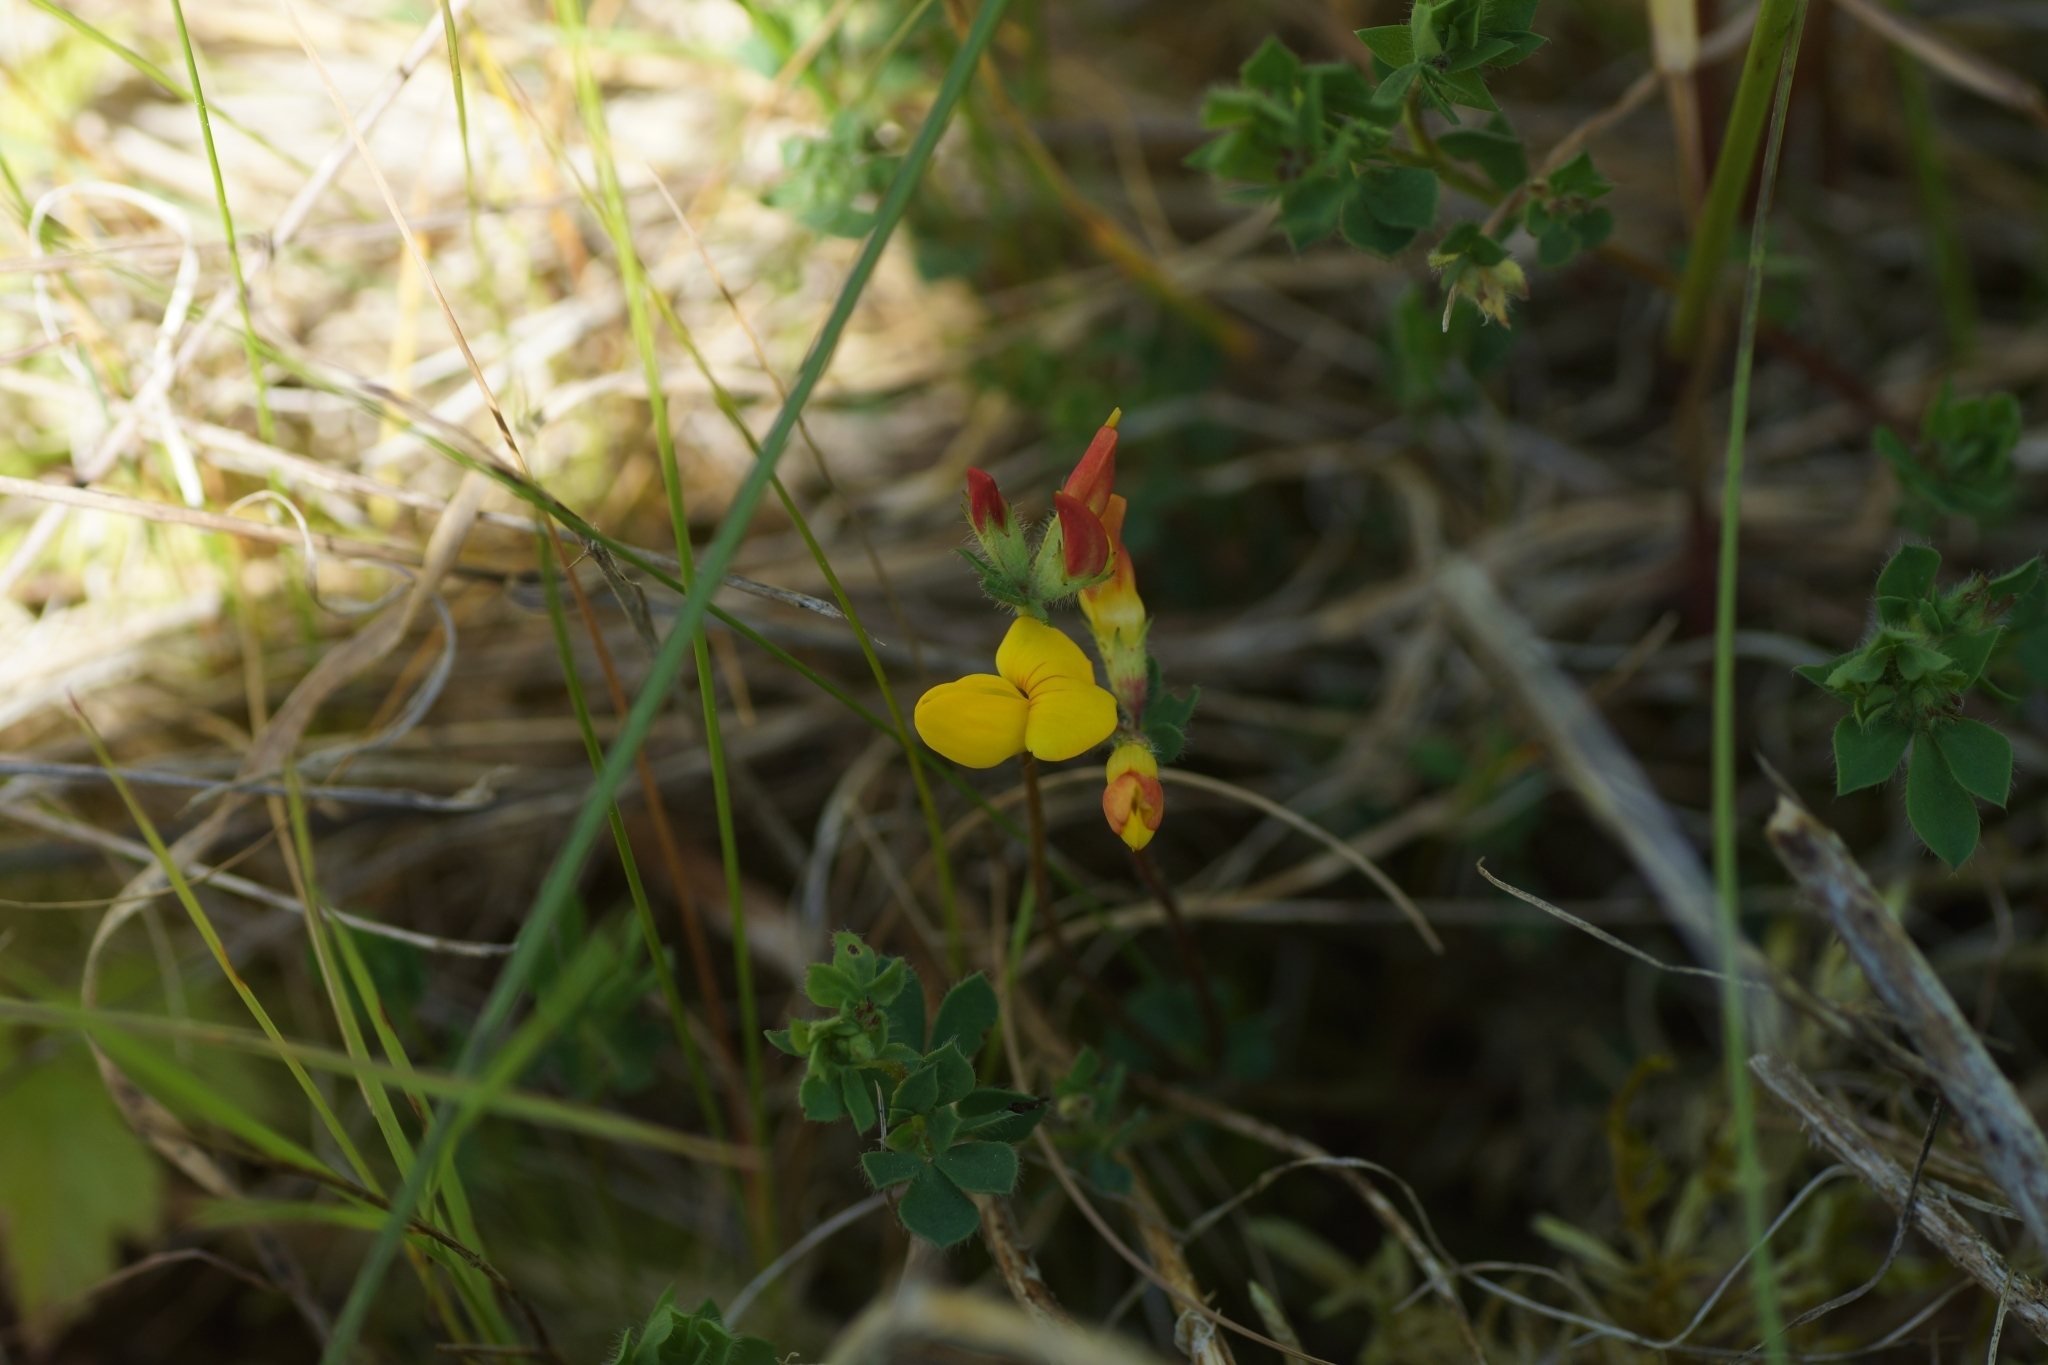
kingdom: Plantae
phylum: Tracheophyta
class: Magnoliopsida
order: Fabales
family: Fabaceae
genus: Lotus
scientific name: Lotus corniculatus
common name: Common bird's-foot-trefoil
